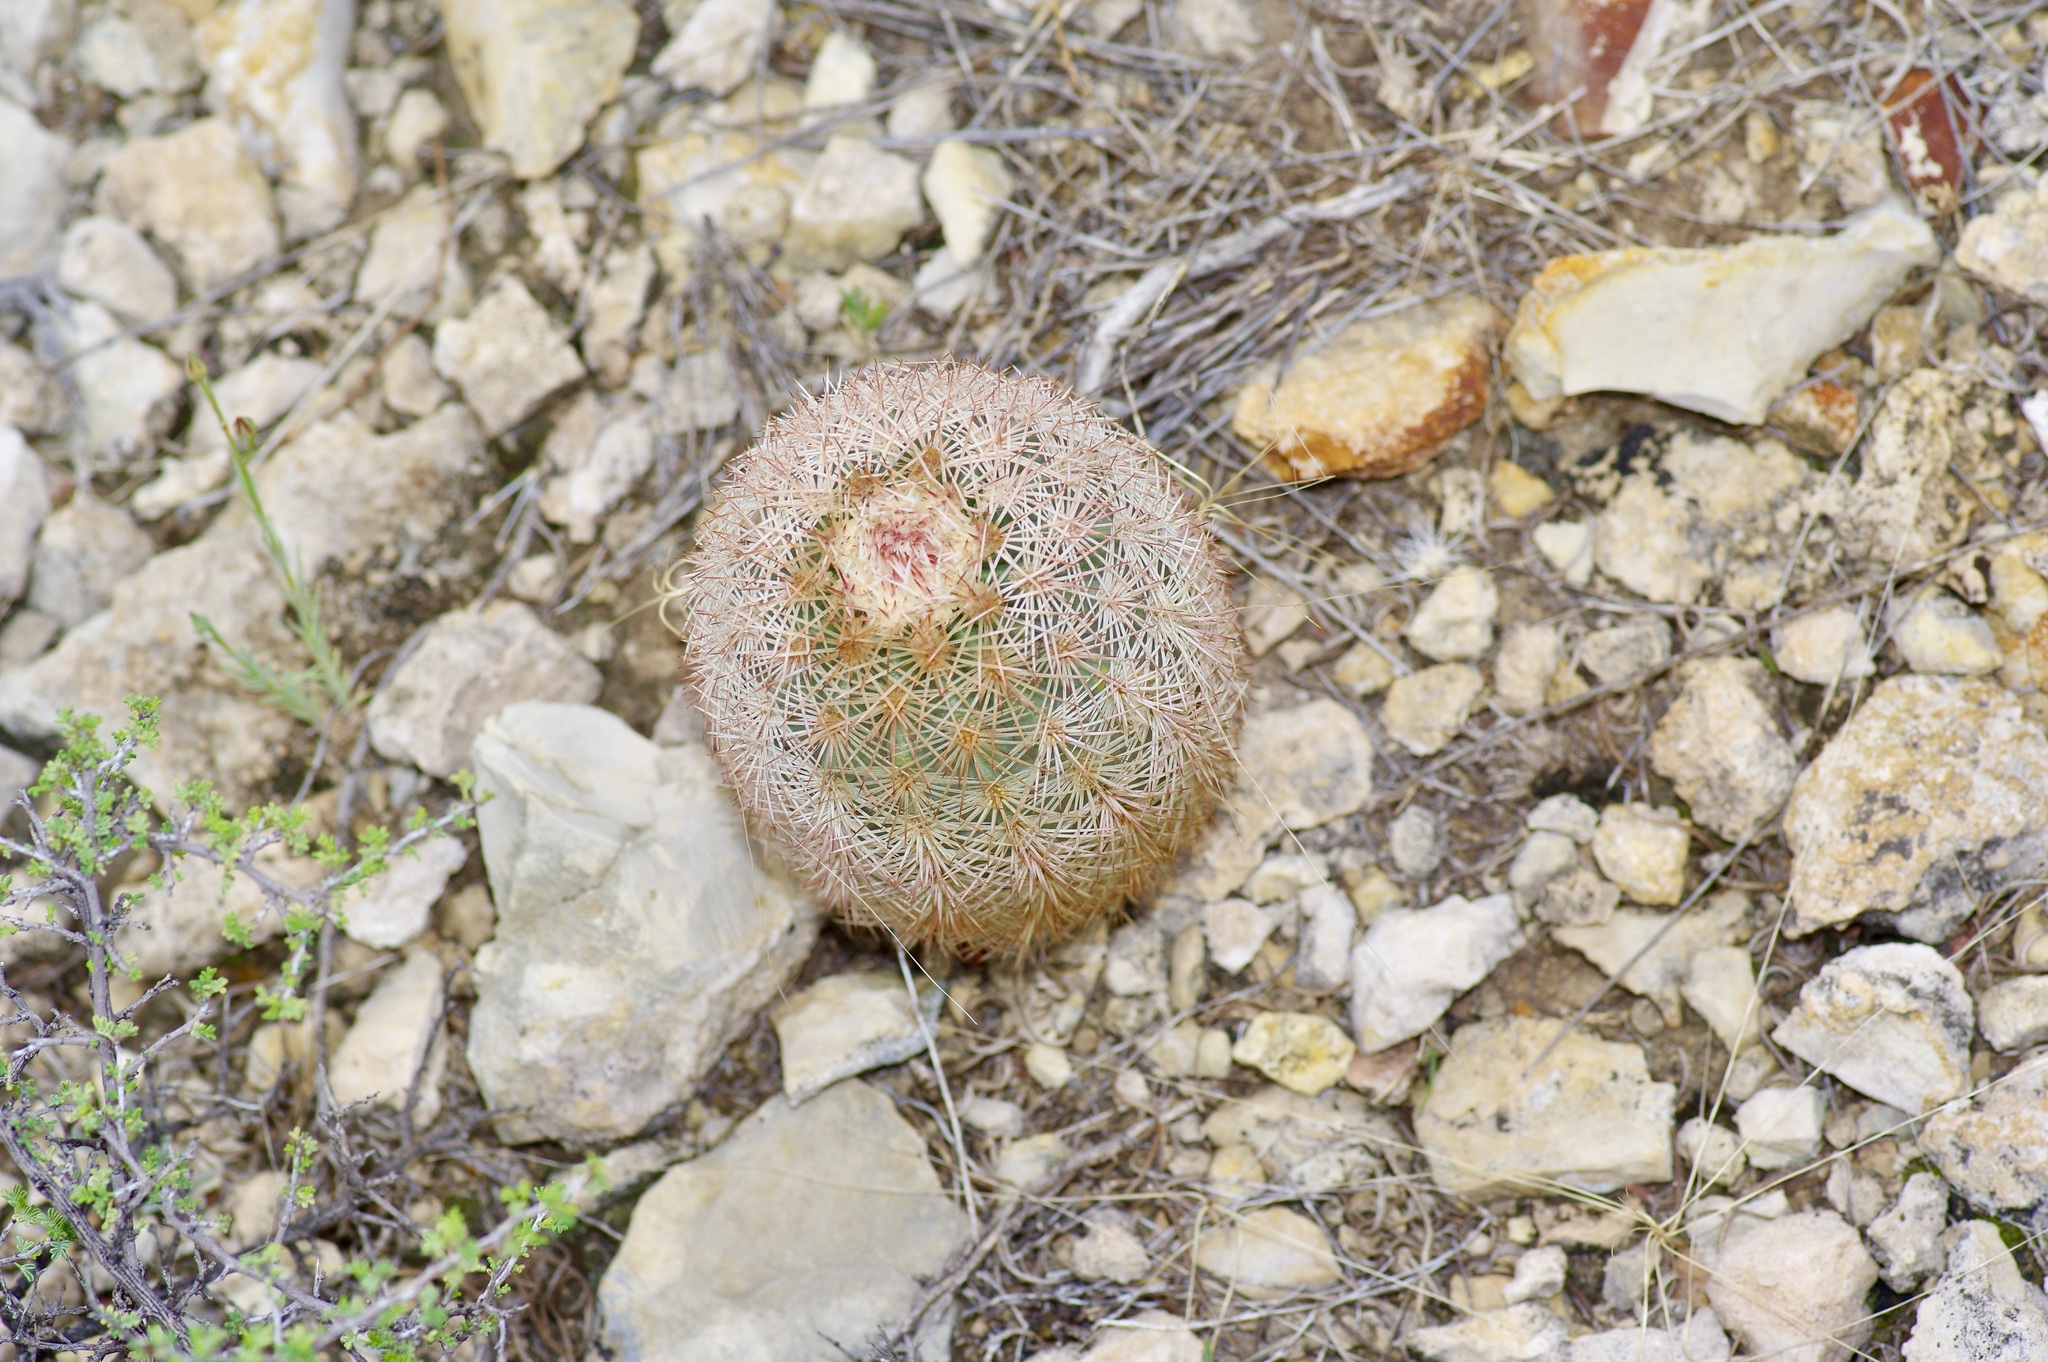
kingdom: Plantae
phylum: Tracheophyta
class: Magnoliopsida
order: Caryophyllales
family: Cactaceae
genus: Echinocereus
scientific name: Echinocereus dasyacanthus
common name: Spiny hedgehog cactus
